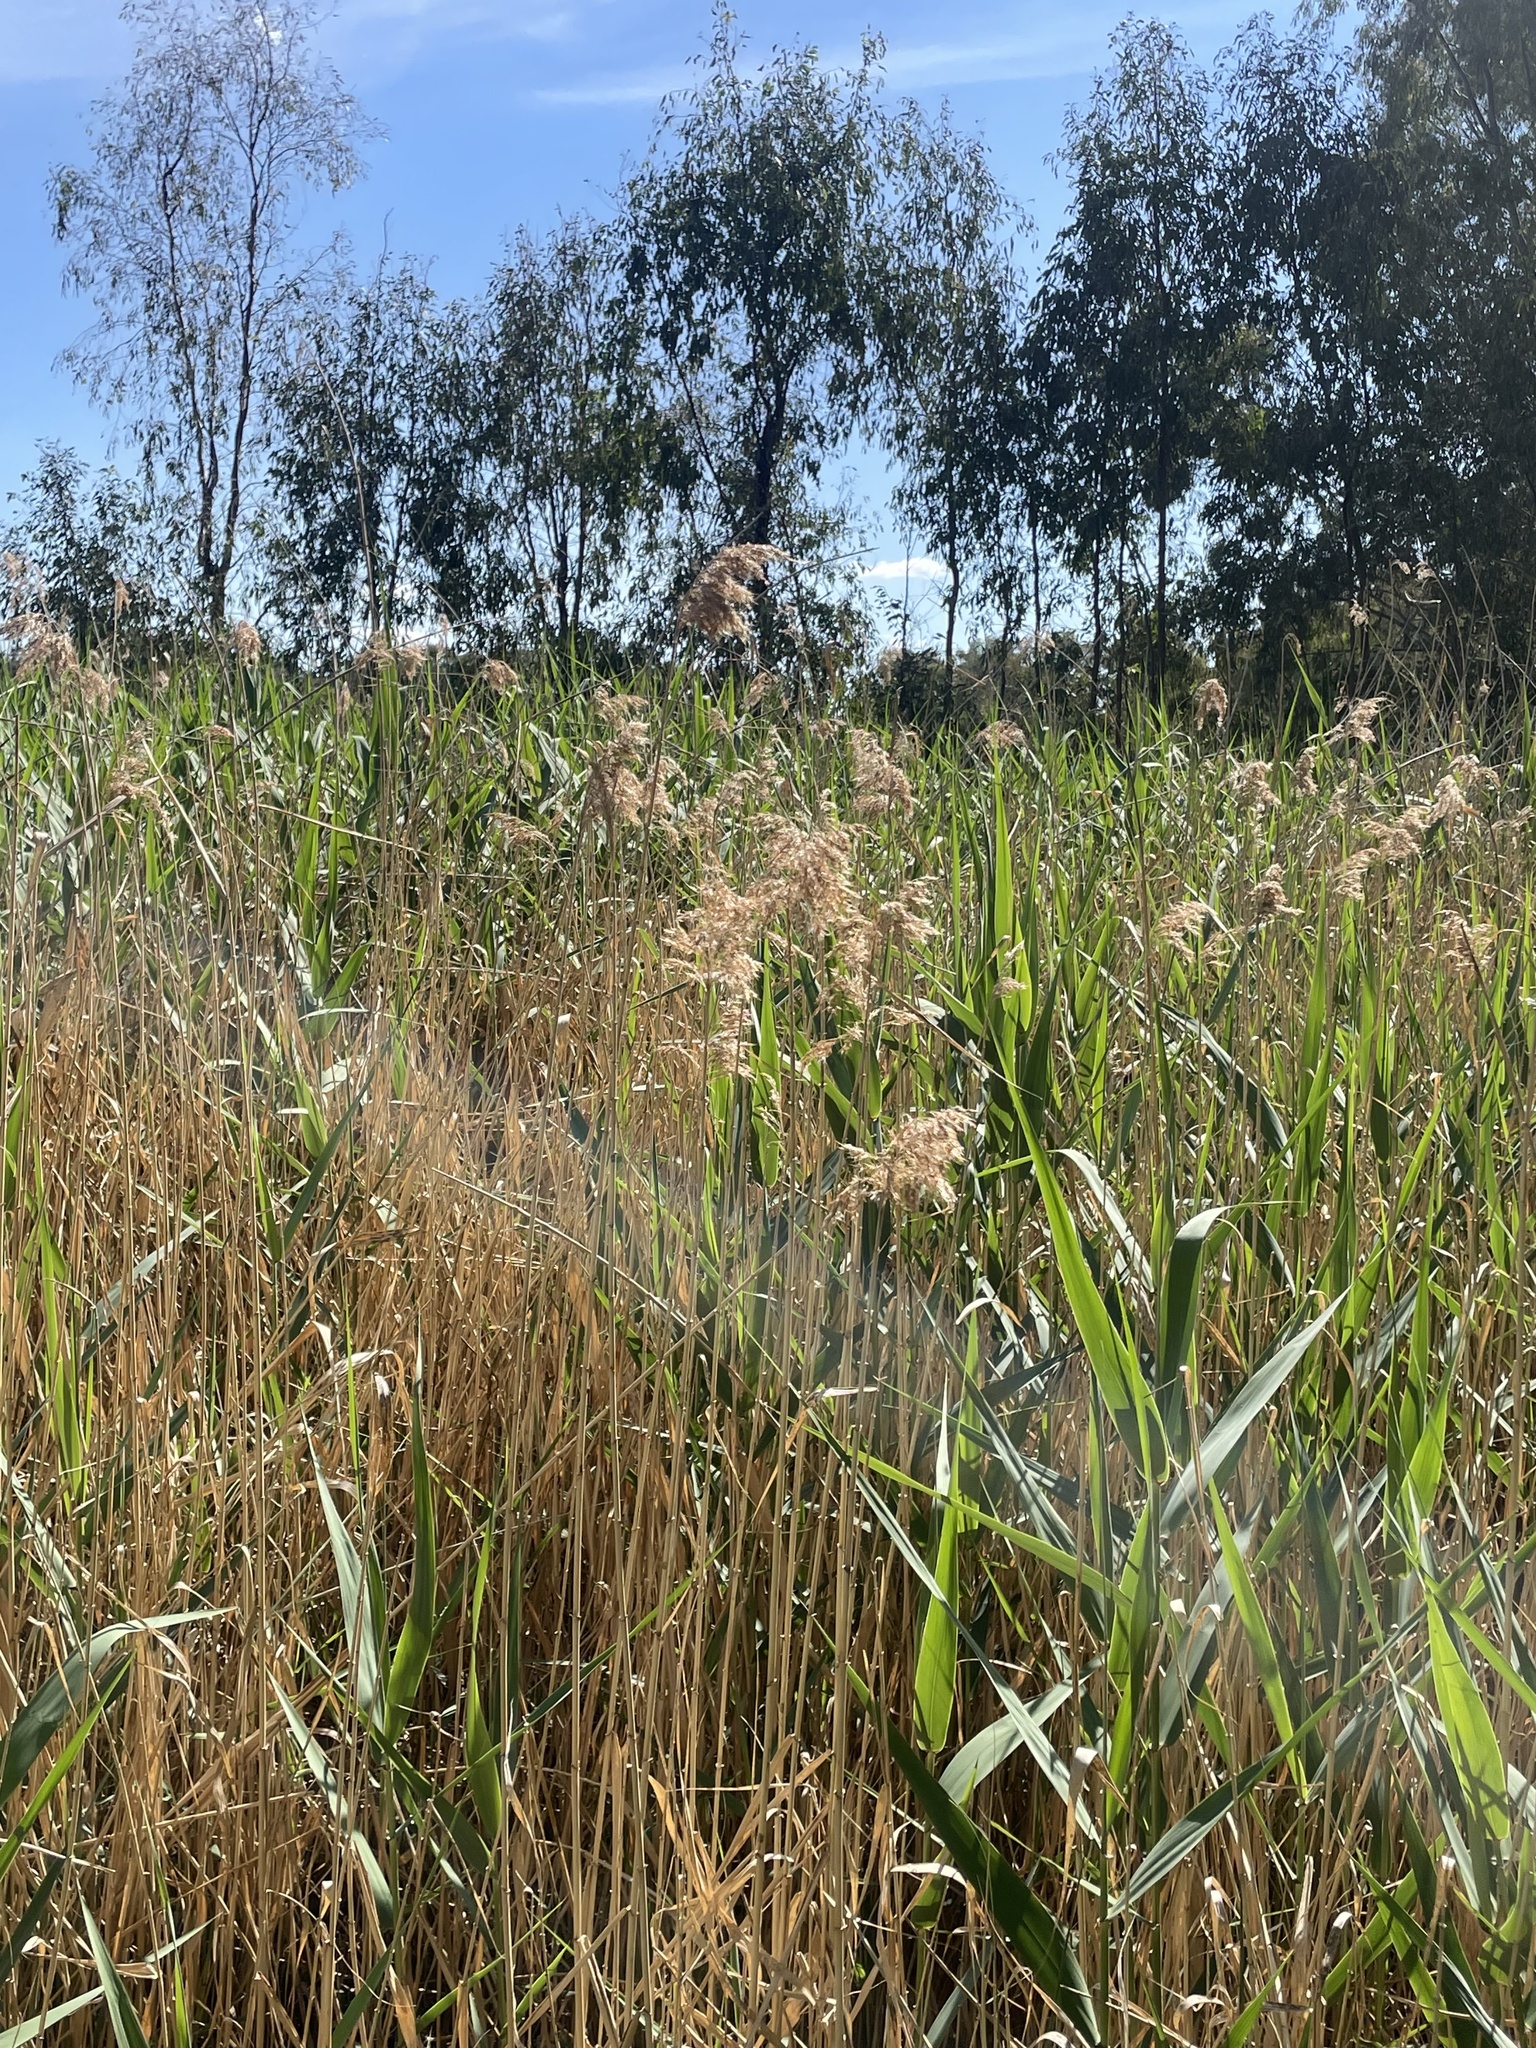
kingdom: Plantae
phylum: Tracheophyta
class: Liliopsida
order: Poales
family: Poaceae
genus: Phragmites
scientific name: Phragmites australis
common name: Common reed
